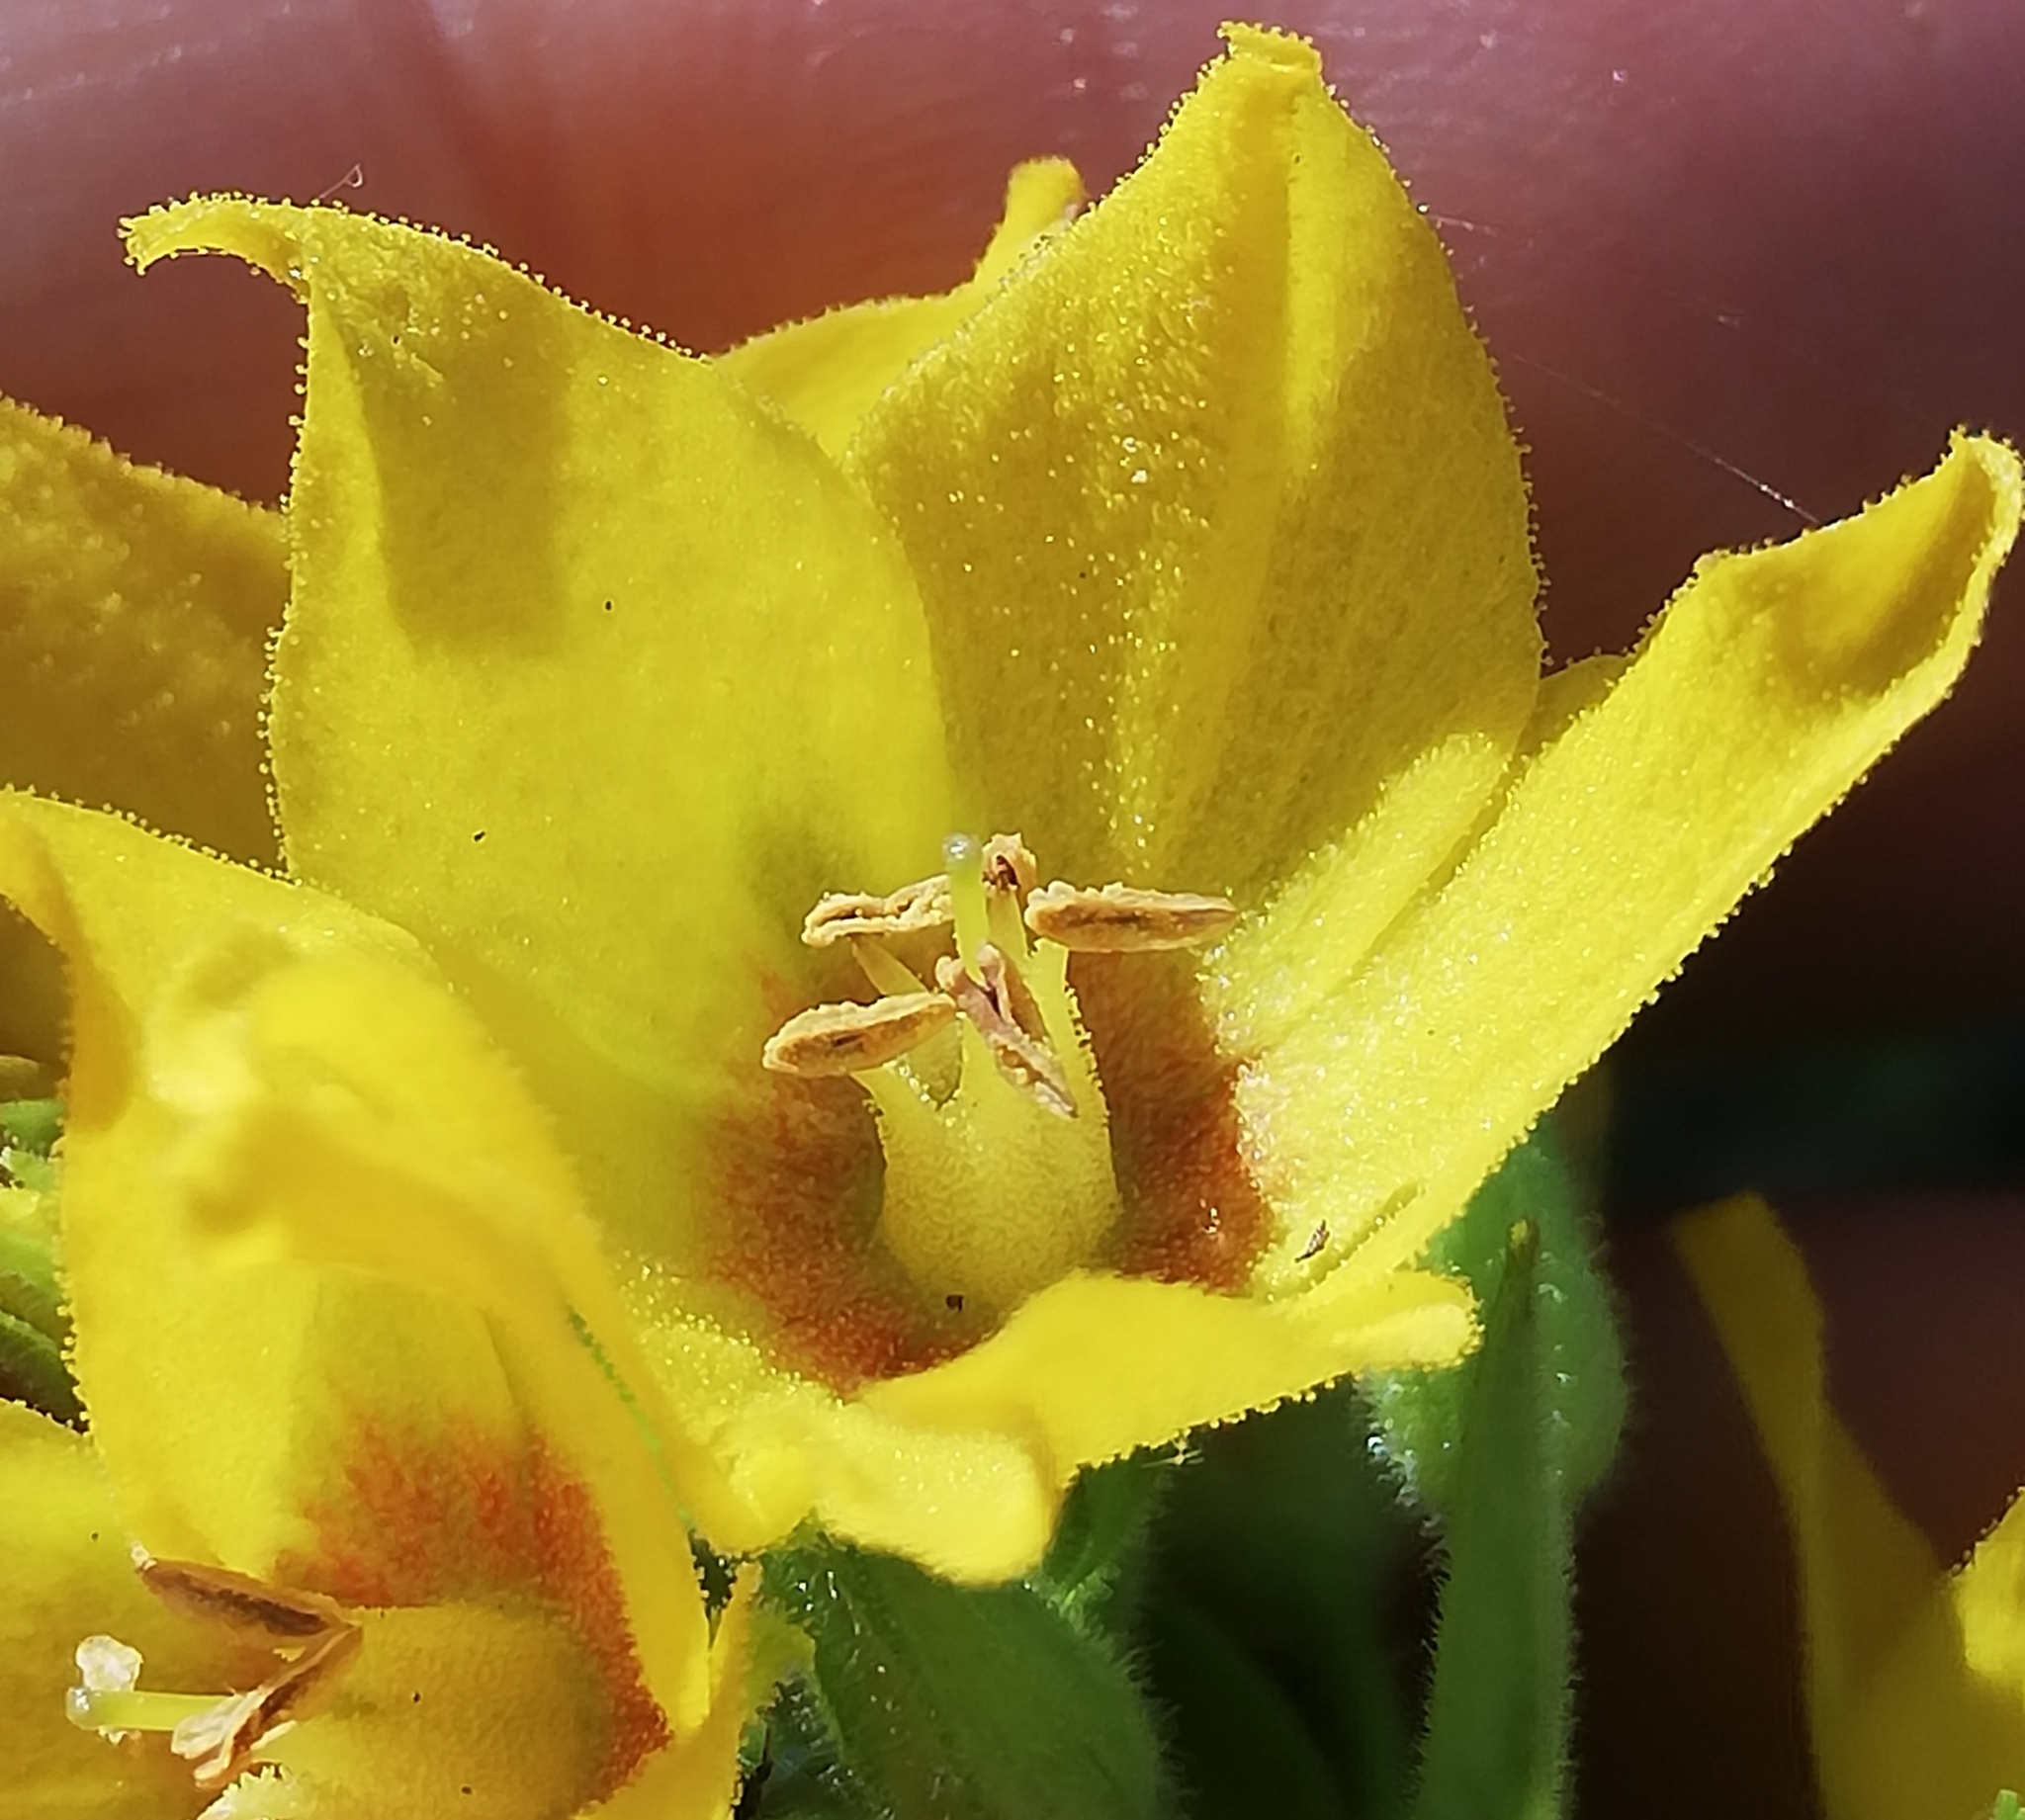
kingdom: Plantae
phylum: Tracheophyta
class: Magnoliopsida
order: Ericales
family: Primulaceae
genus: Lysimachia
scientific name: Lysimachia punctata
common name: Dotted loosestrife
